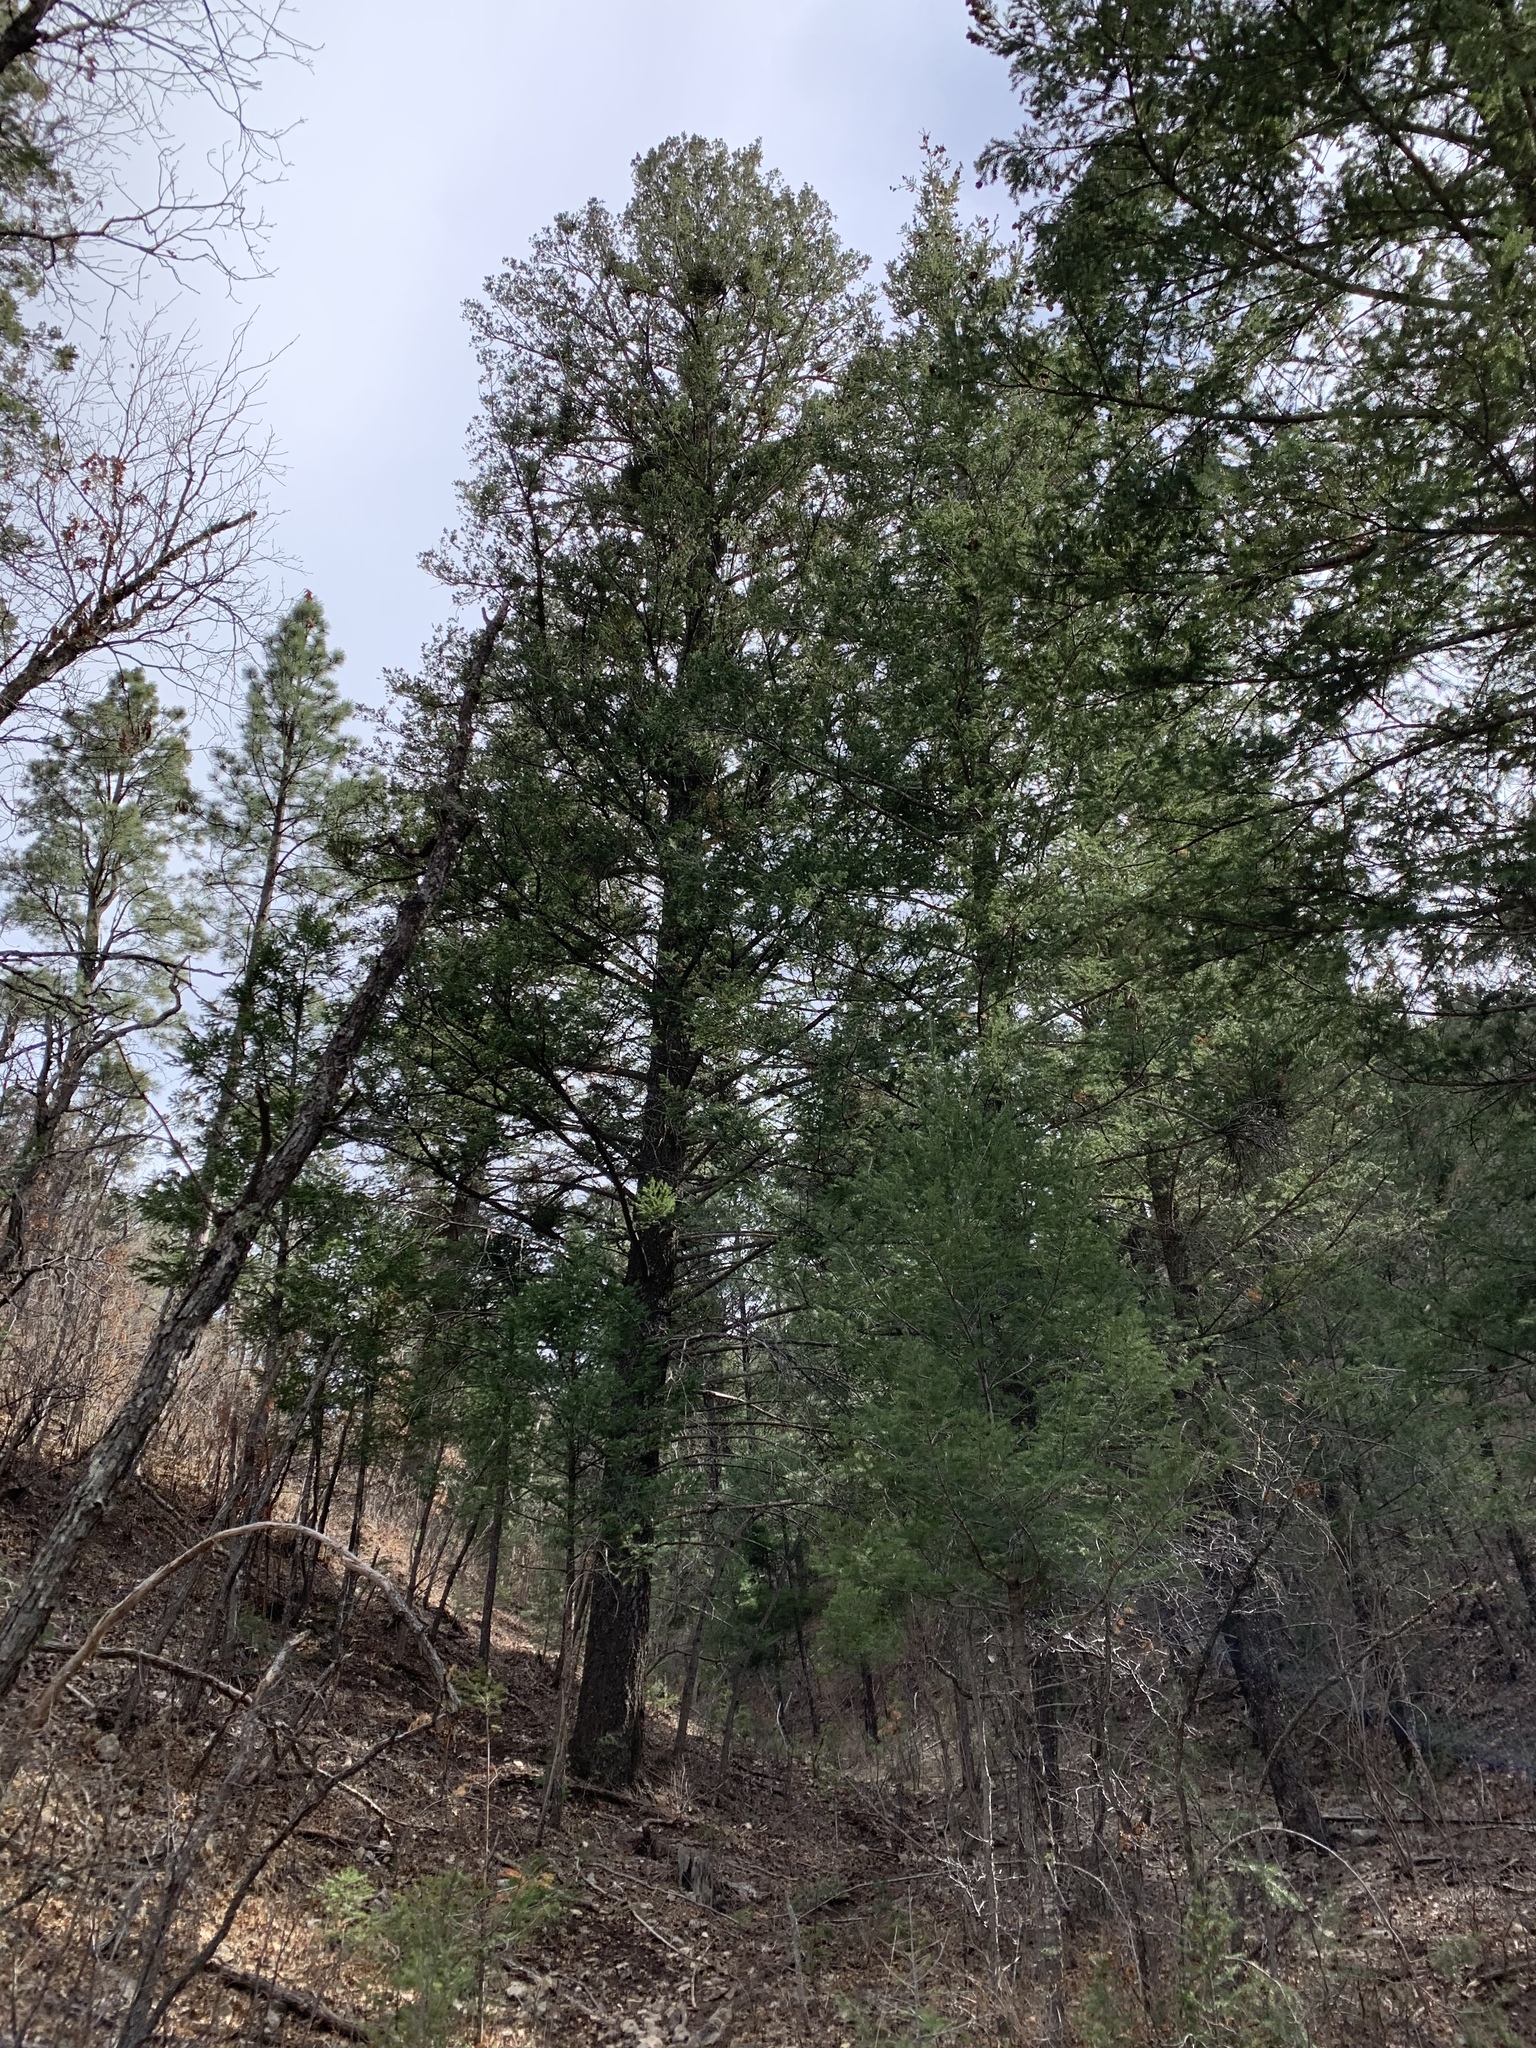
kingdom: Plantae
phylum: Tracheophyta
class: Pinopsida
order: Pinales
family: Pinaceae
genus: Pseudotsuga
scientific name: Pseudotsuga menziesii
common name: Douglas fir
